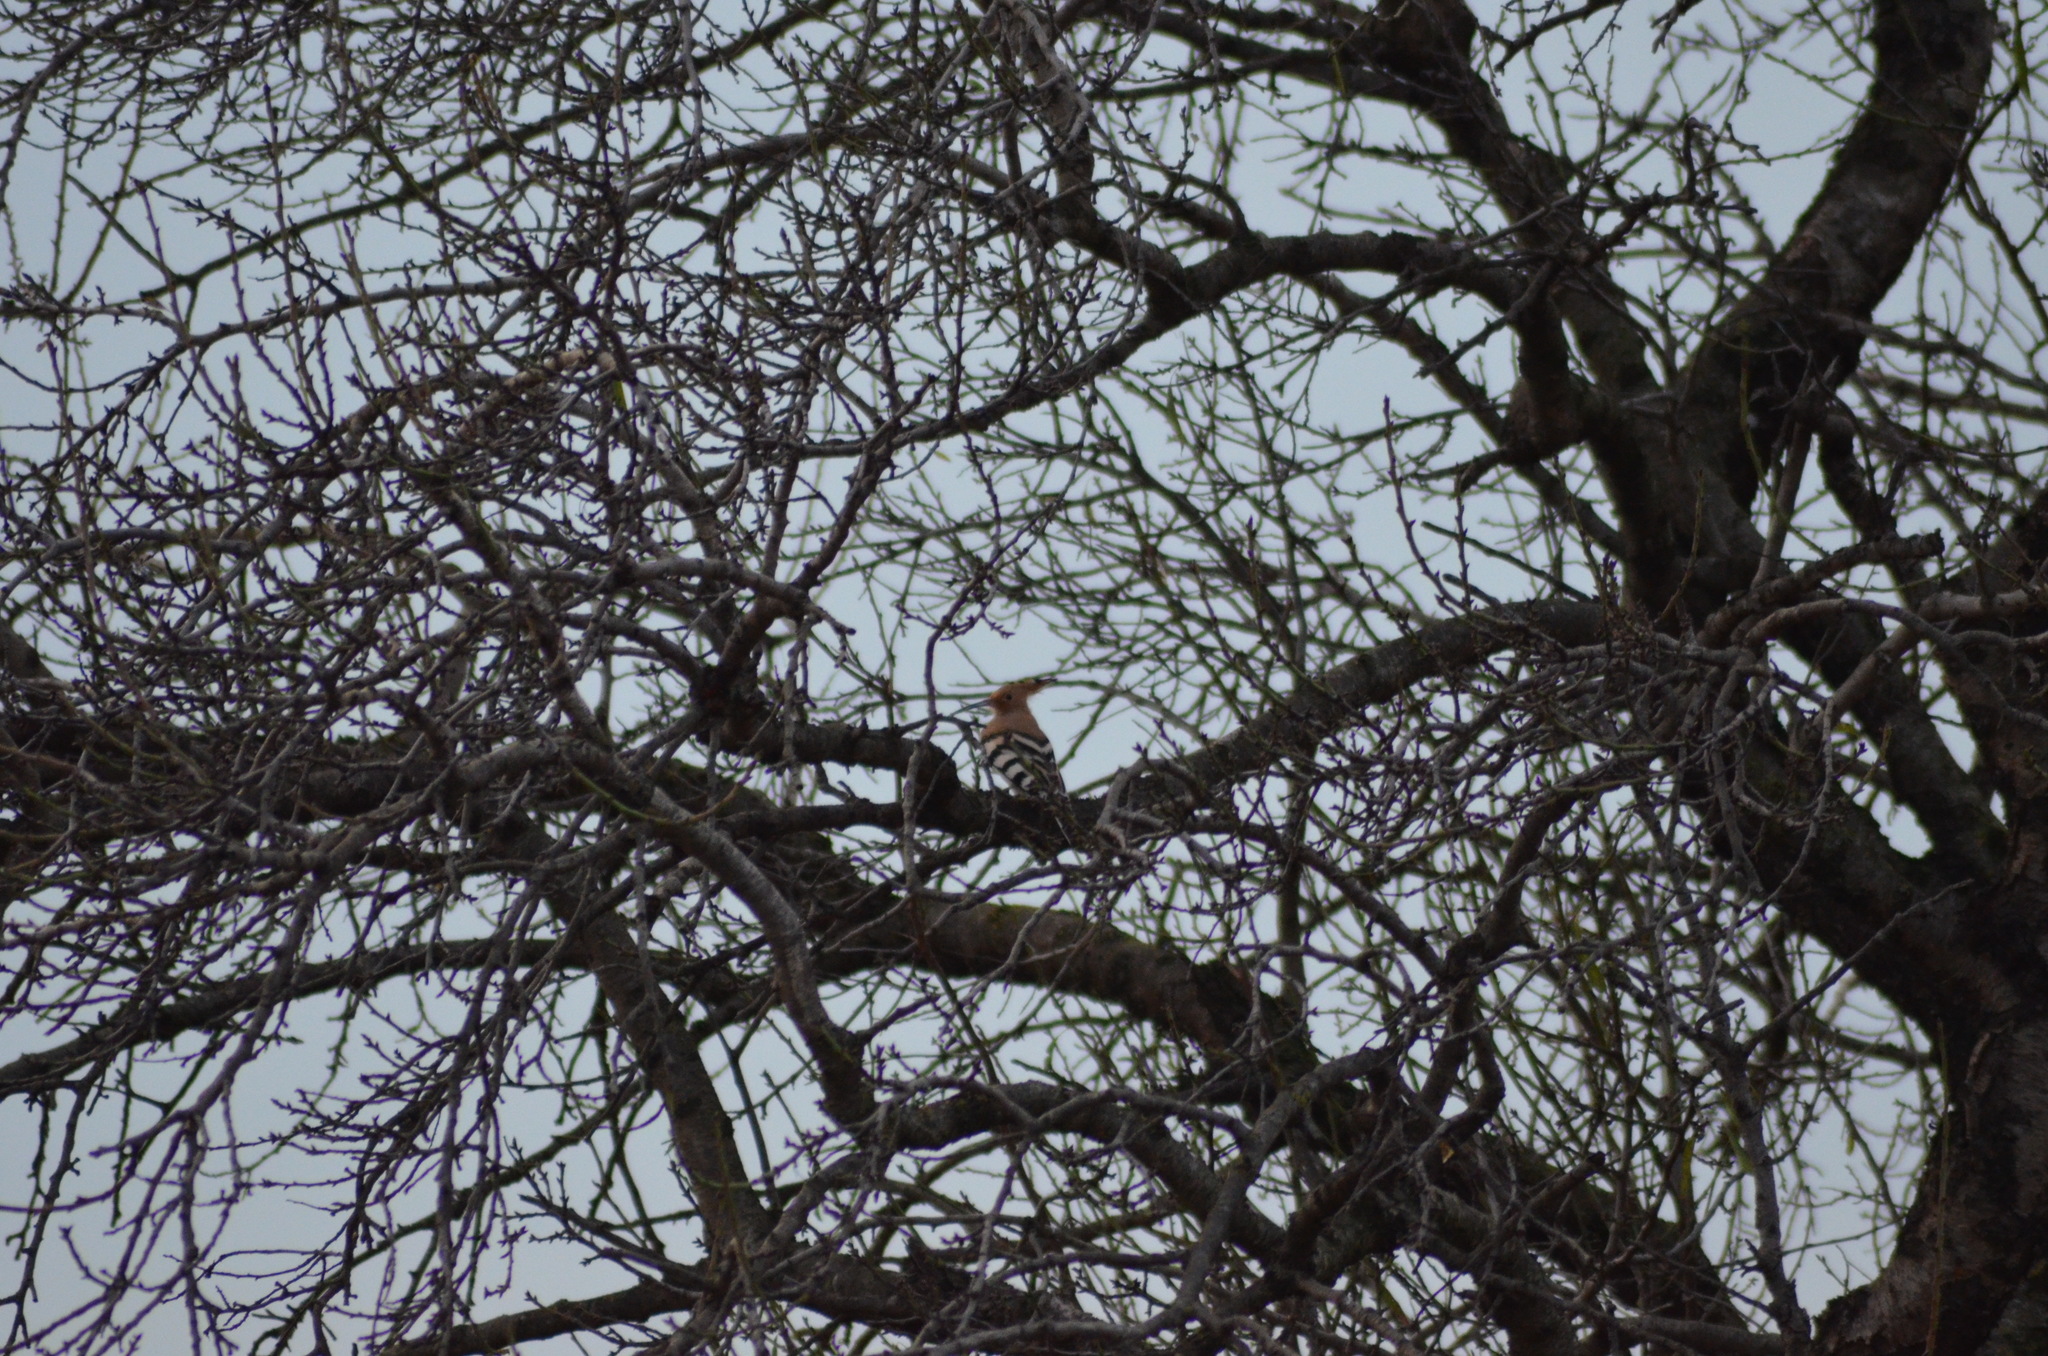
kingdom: Animalia
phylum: Chordata
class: Aves
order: Bucerotiformes
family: Upupidae
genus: Upupa
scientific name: Upupa epops
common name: Eurasian hoopoe
